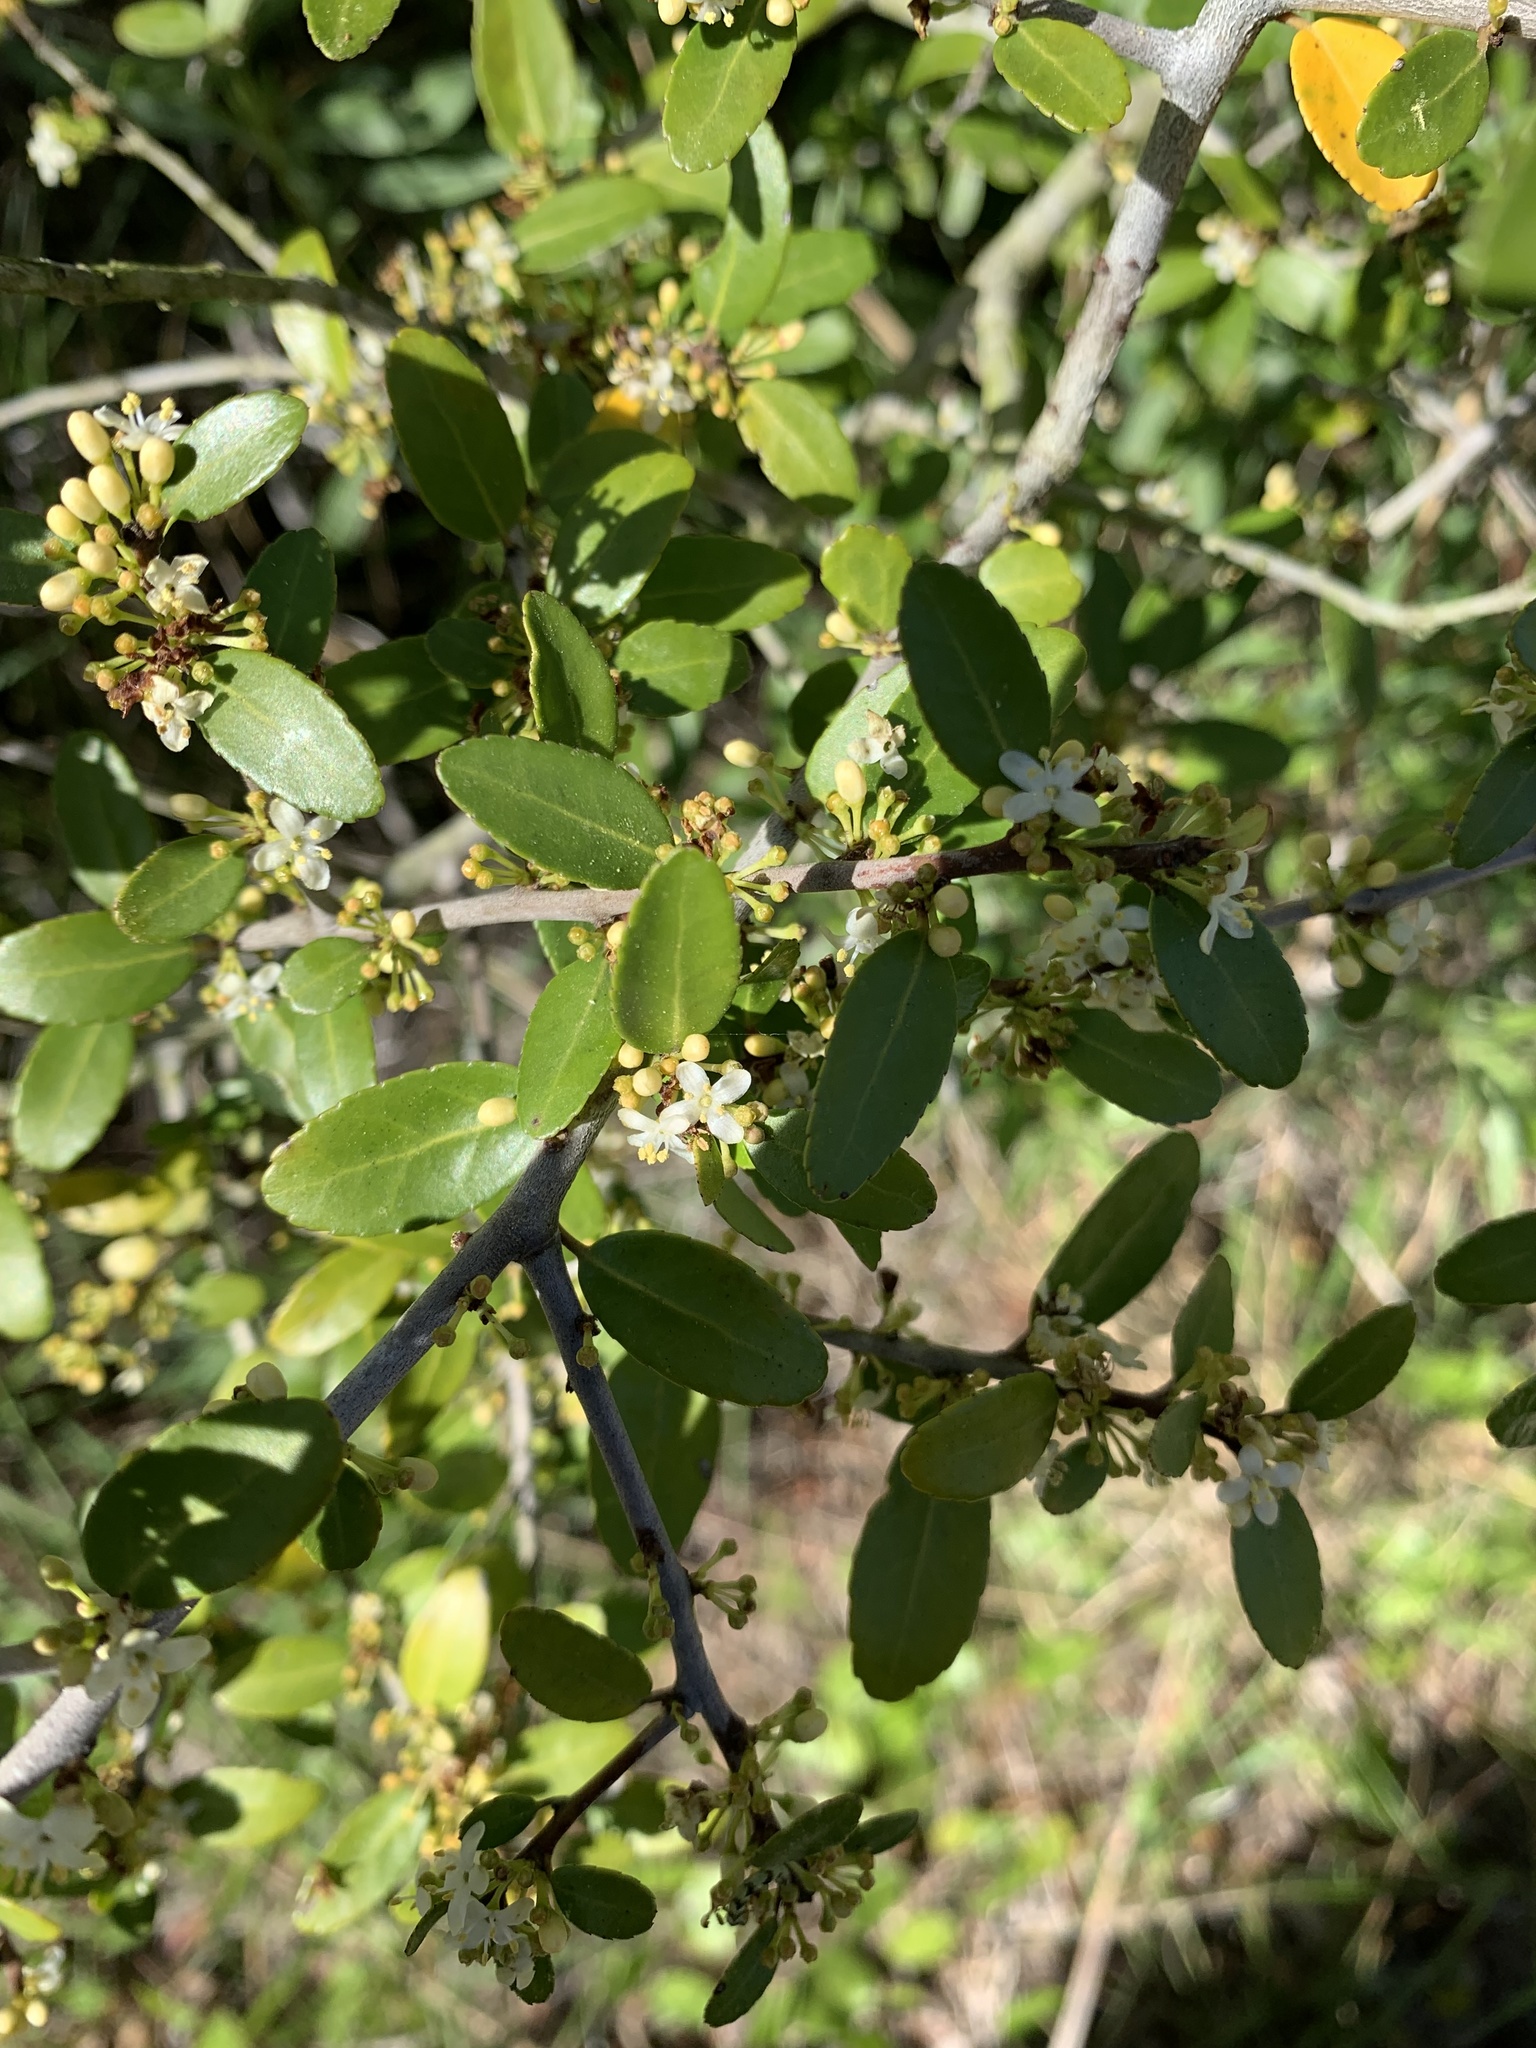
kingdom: Plantae
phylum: Tracheophyta
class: Magnoliopsida
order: Aquifoliales
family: Aquifoliaceae
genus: Ilex
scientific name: Ilex vomitoria
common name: Yaupon holly
